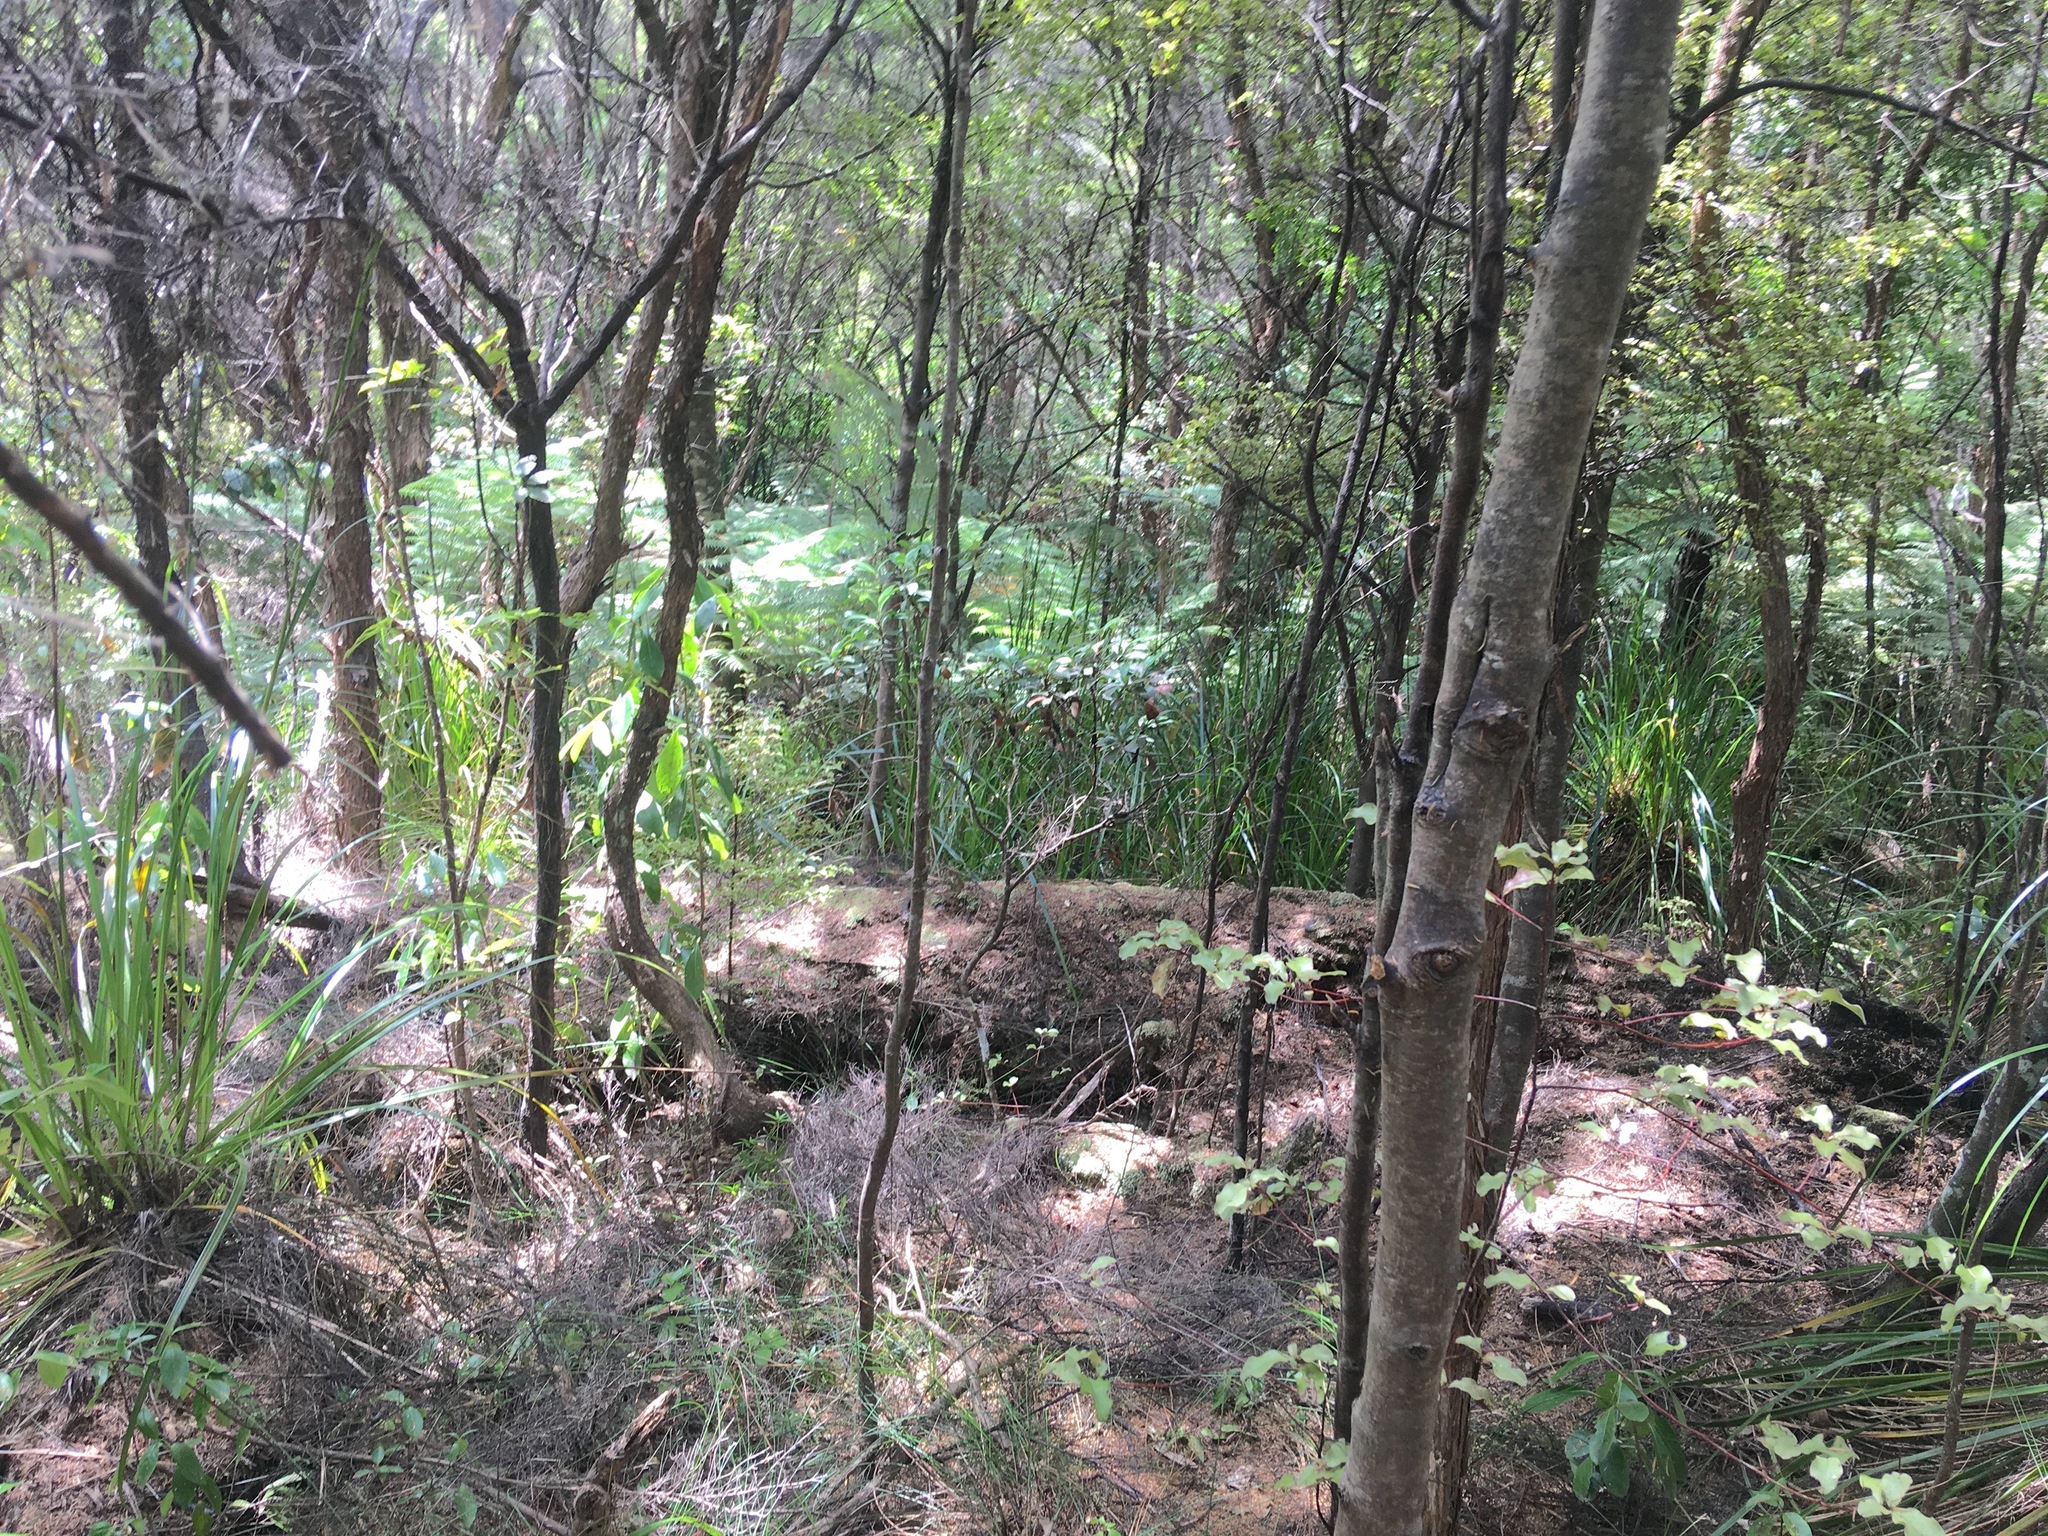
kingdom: Plantae
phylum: Tracheophyta
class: Magnoliopsida
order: Ericales
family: Primulaceae
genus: Myrsine
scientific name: Myrsine australis
